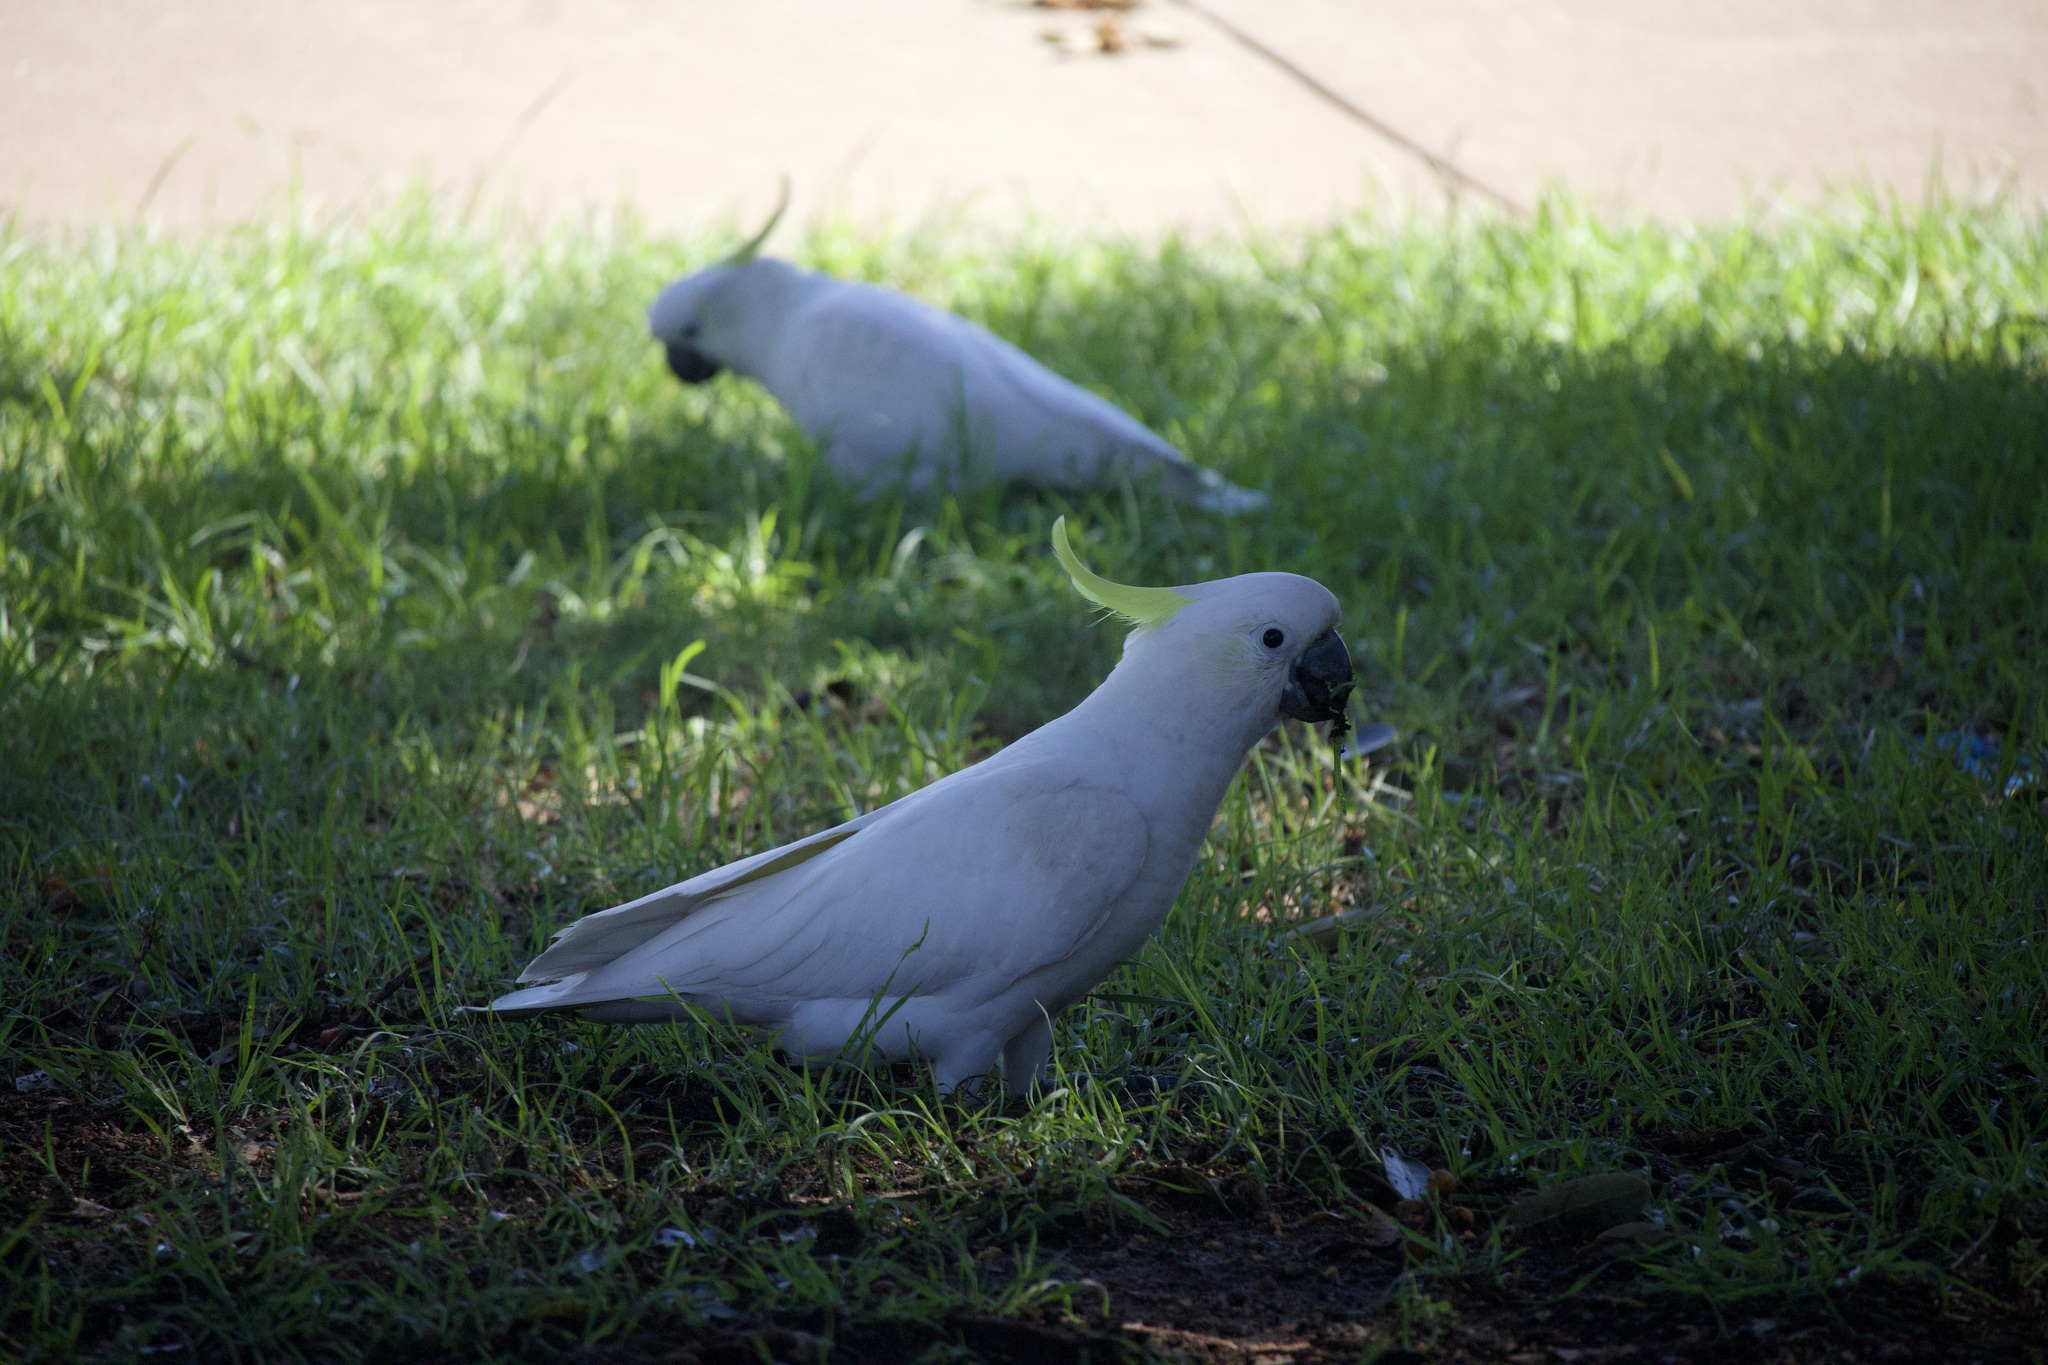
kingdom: Animalia
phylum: Chordata
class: Aves
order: Psittaciformes
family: Psittacidae
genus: Cacatua
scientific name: Cacatua galerita
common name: Sulphur-crested cockatoo
